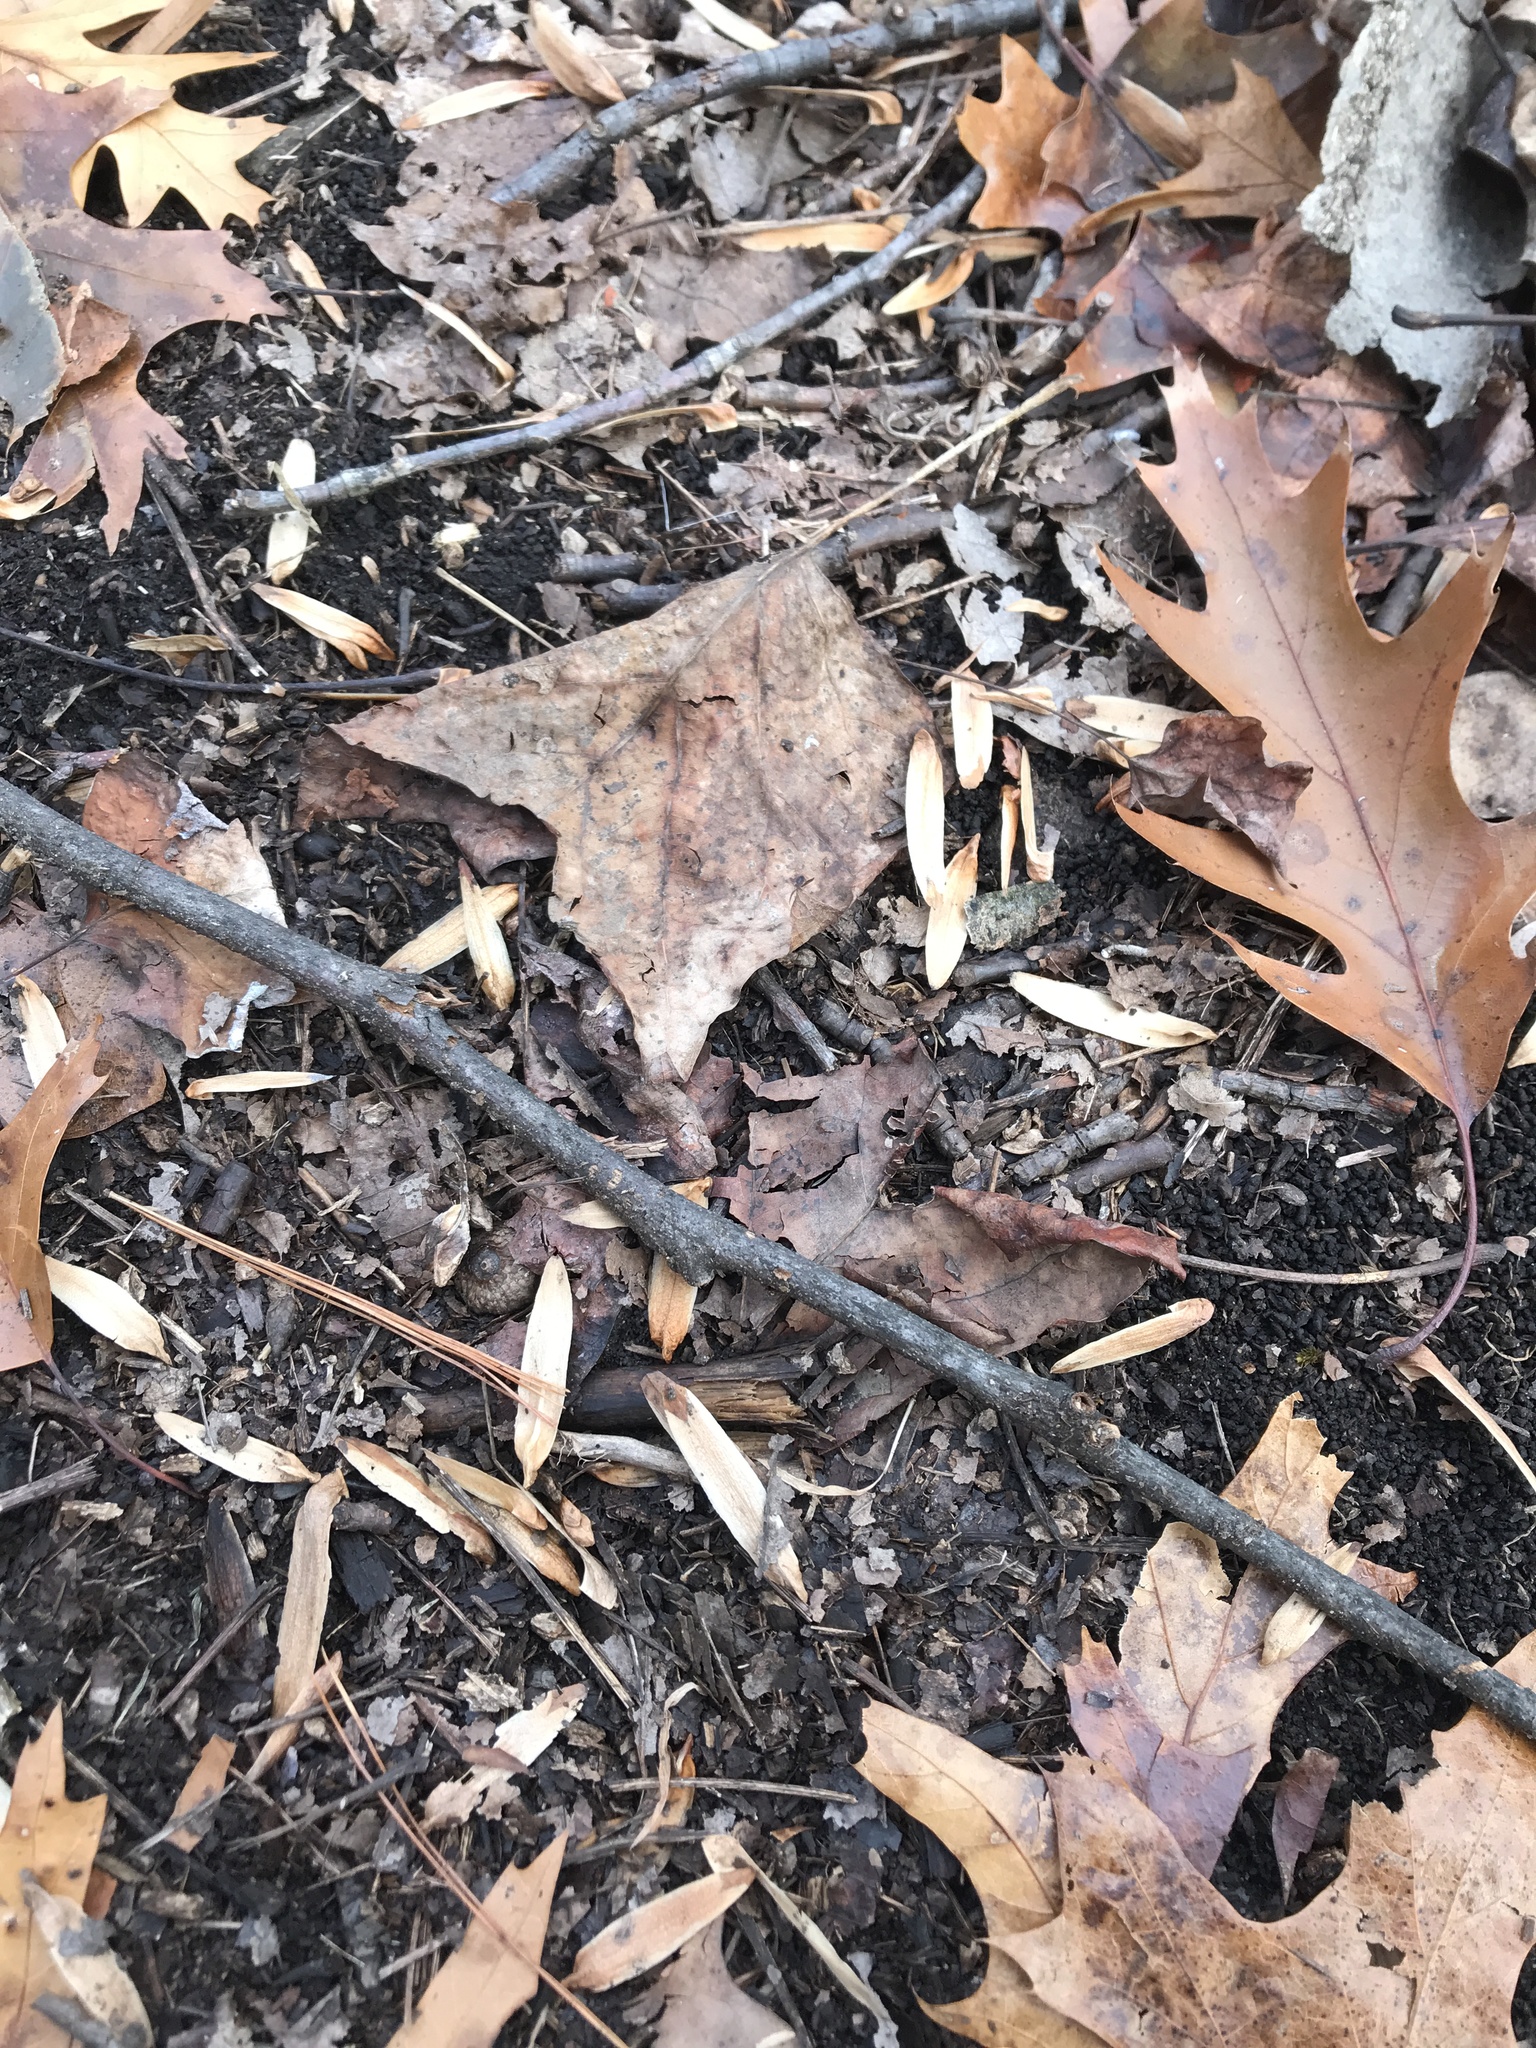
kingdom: Plantae
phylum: Tracheophyta
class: Magnoliopsida
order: Magnoliales
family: Magnoliaceae
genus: Liriodendron
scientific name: Liriodendron tulipifera
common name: Tulip tree
